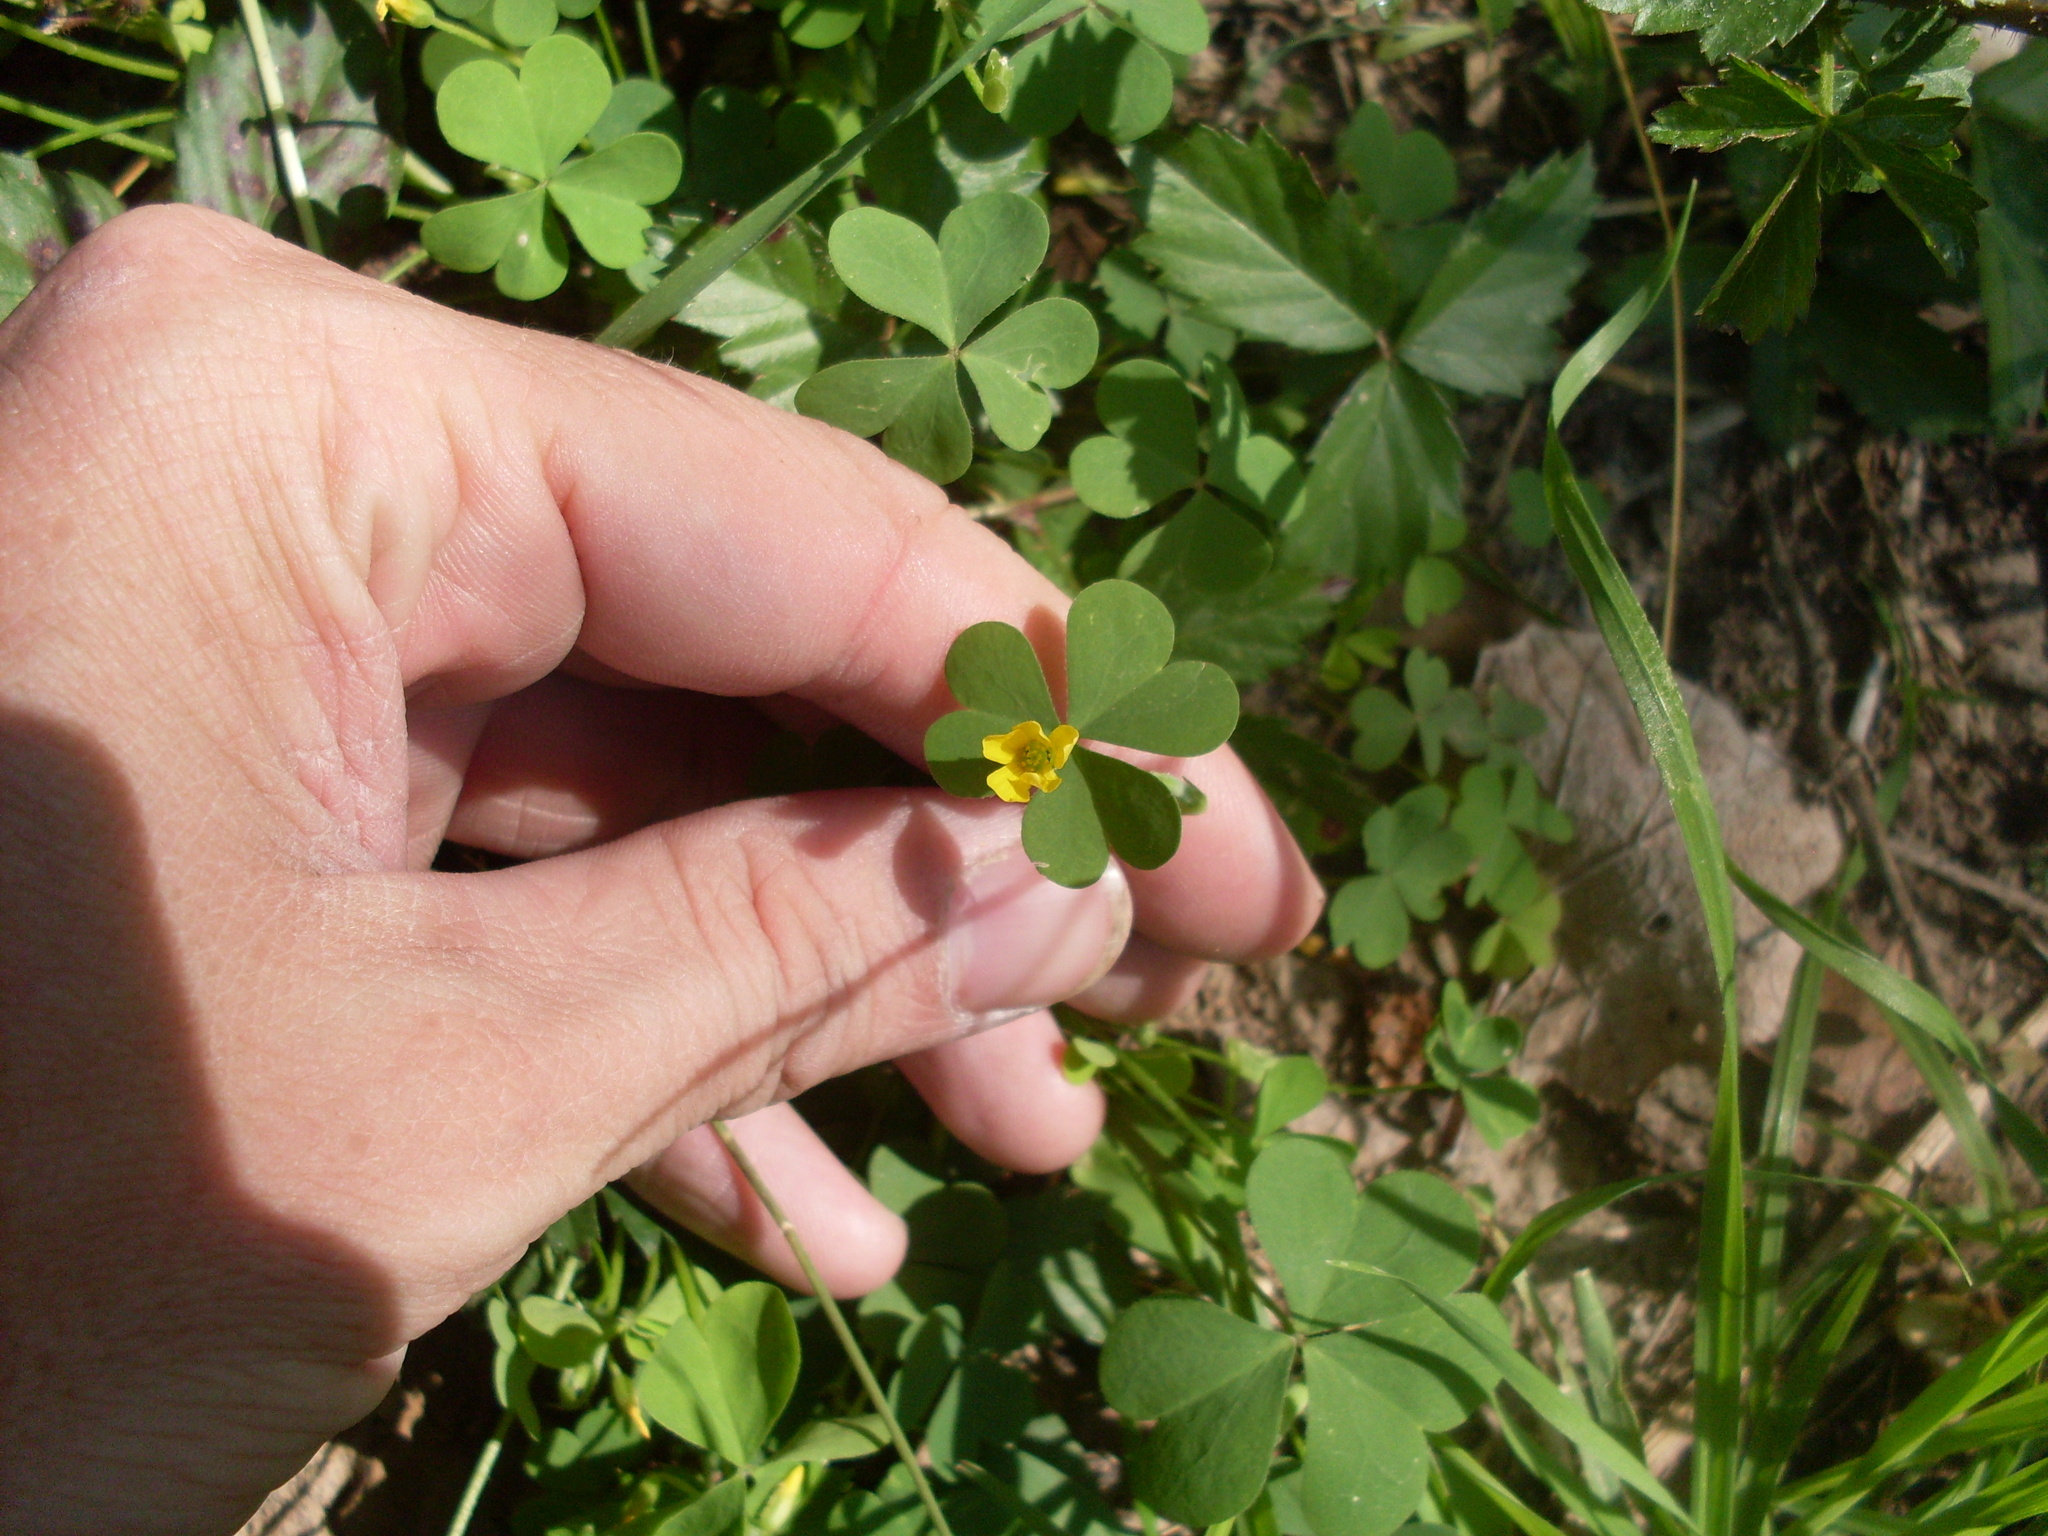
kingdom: Plantae
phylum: Tracheophyta
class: Magnoliopsida
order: Oxalidales
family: Oxalidaceae
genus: Oxalis
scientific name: Oxalis dillenii
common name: Sussex yellow-sorrel
